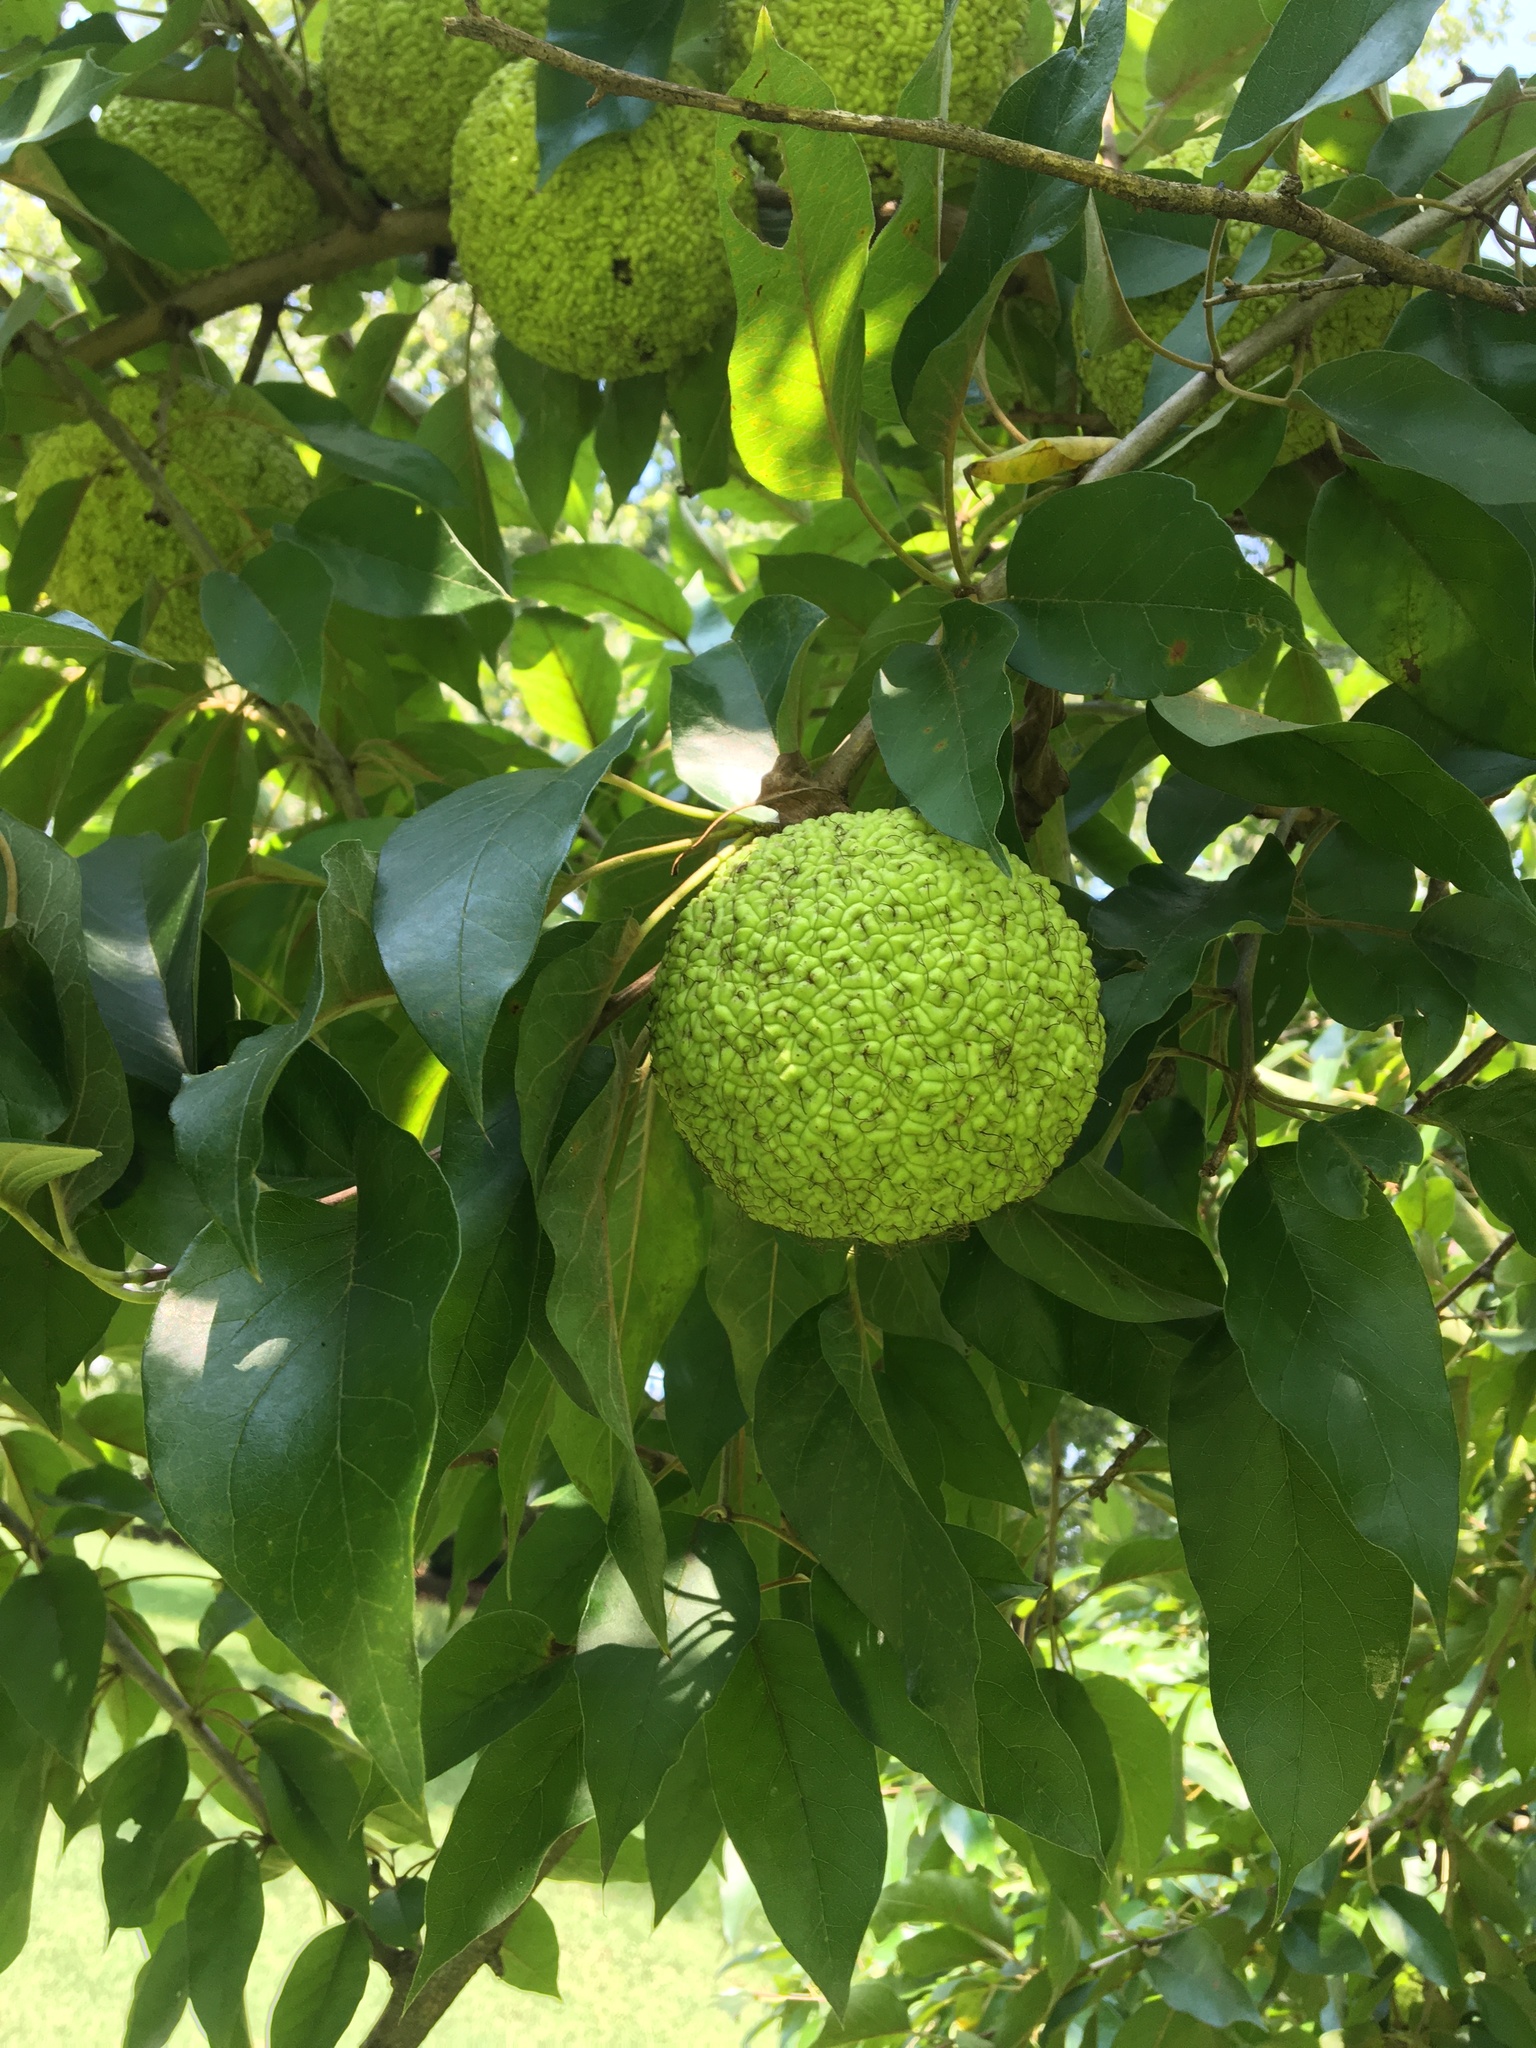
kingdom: Plantae
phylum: Tracheophyta
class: Magnoliopsida
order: Rosales
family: Moraceae
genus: Maclura
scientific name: Maclura pomifera
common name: Osage-orange
